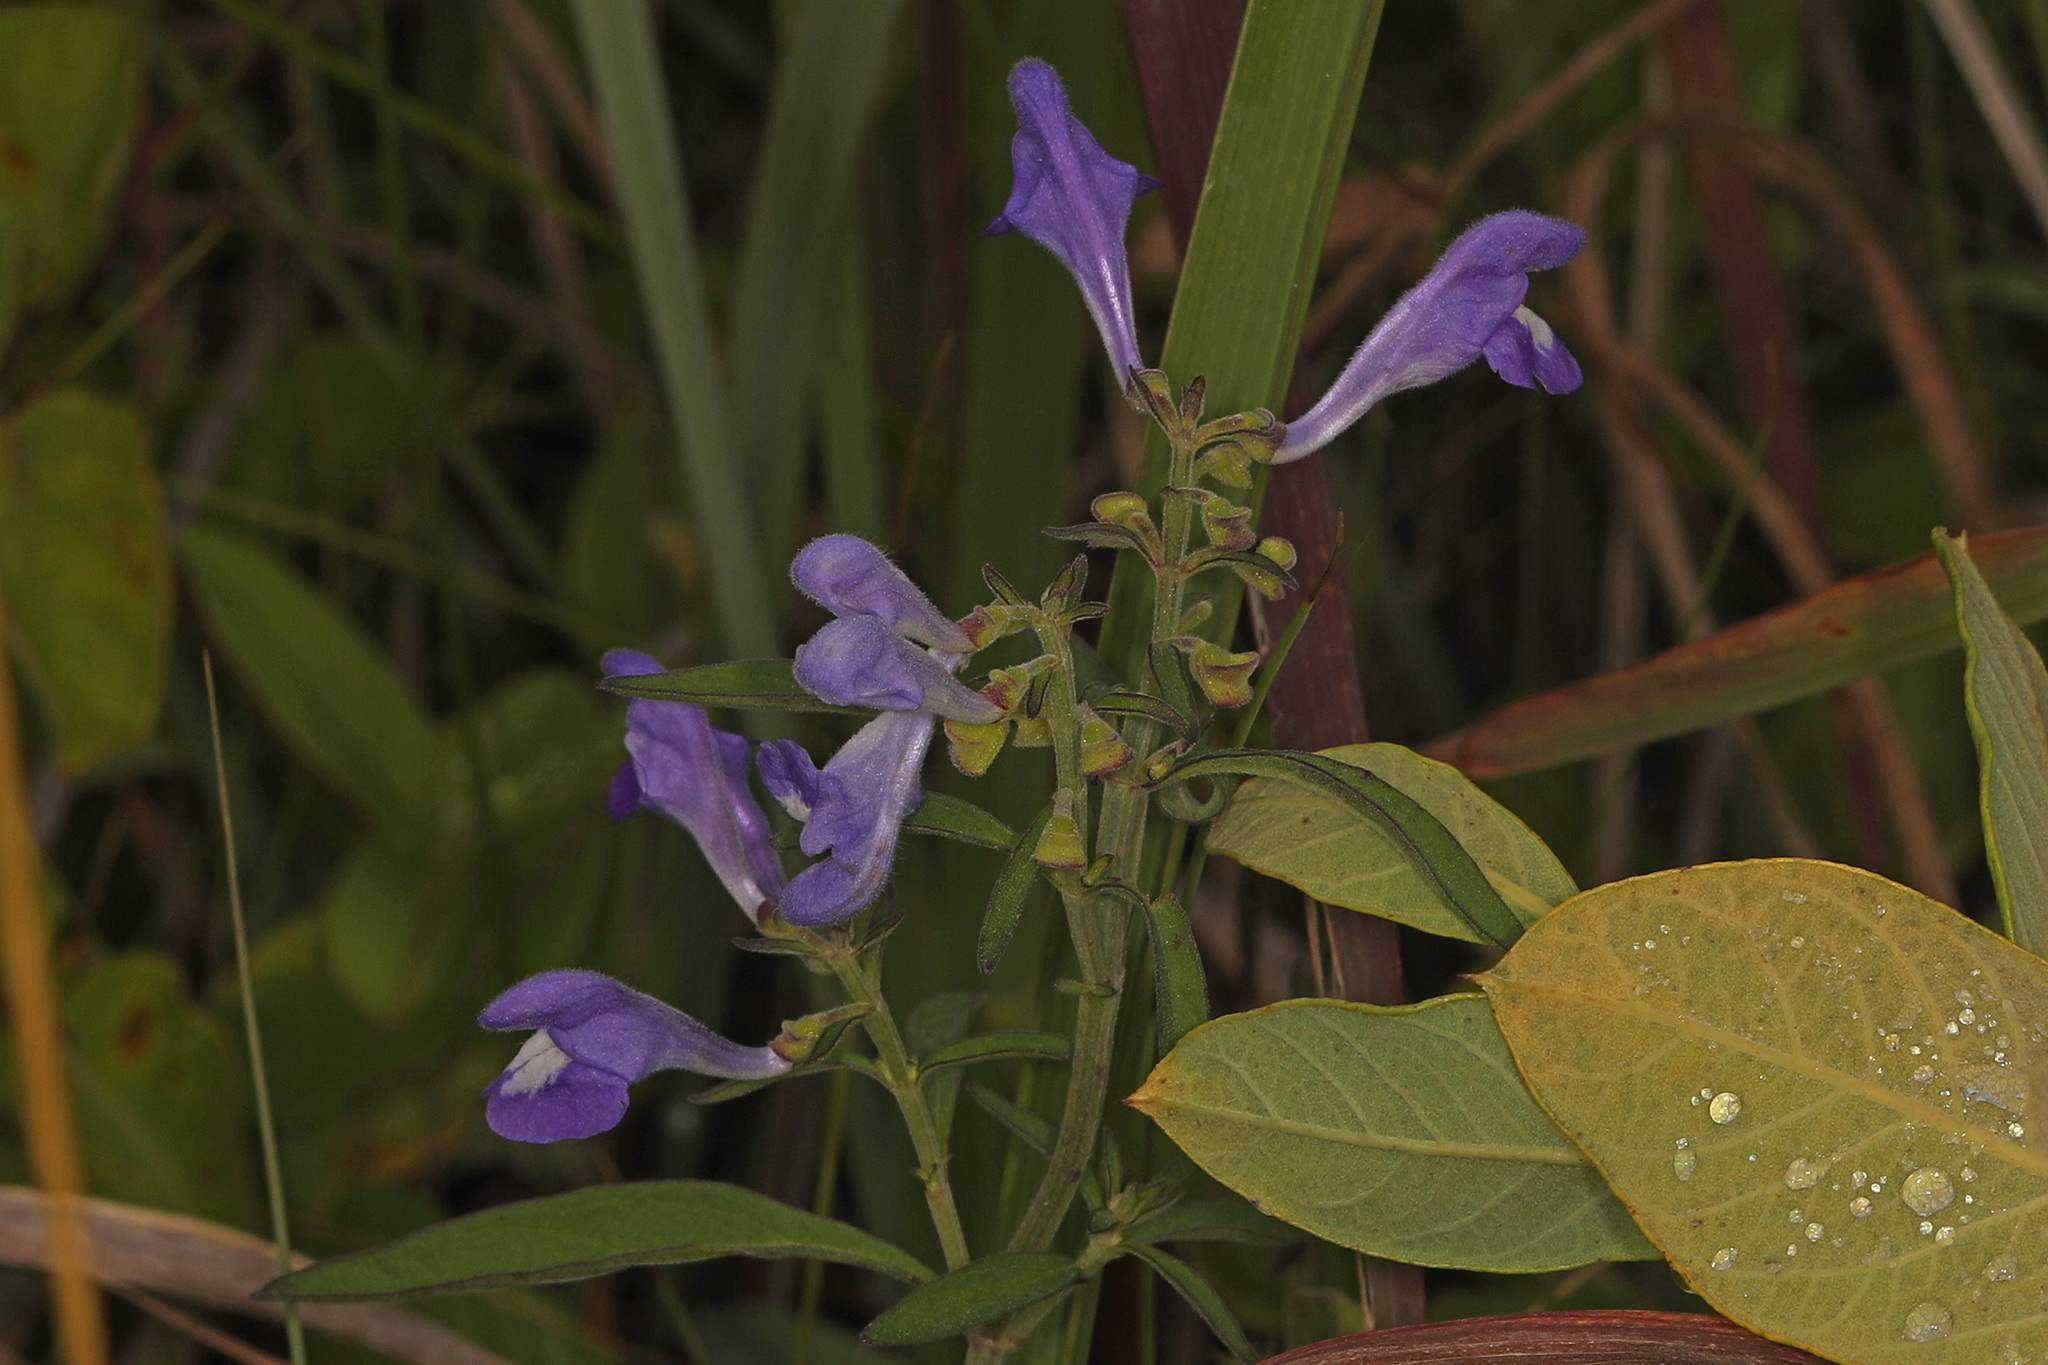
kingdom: Plantae
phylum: Tracheophyta
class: Magnoliopsida
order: Lamiales
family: Lamiaceae
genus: Scutellaria
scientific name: Scutellaria integrifolia
